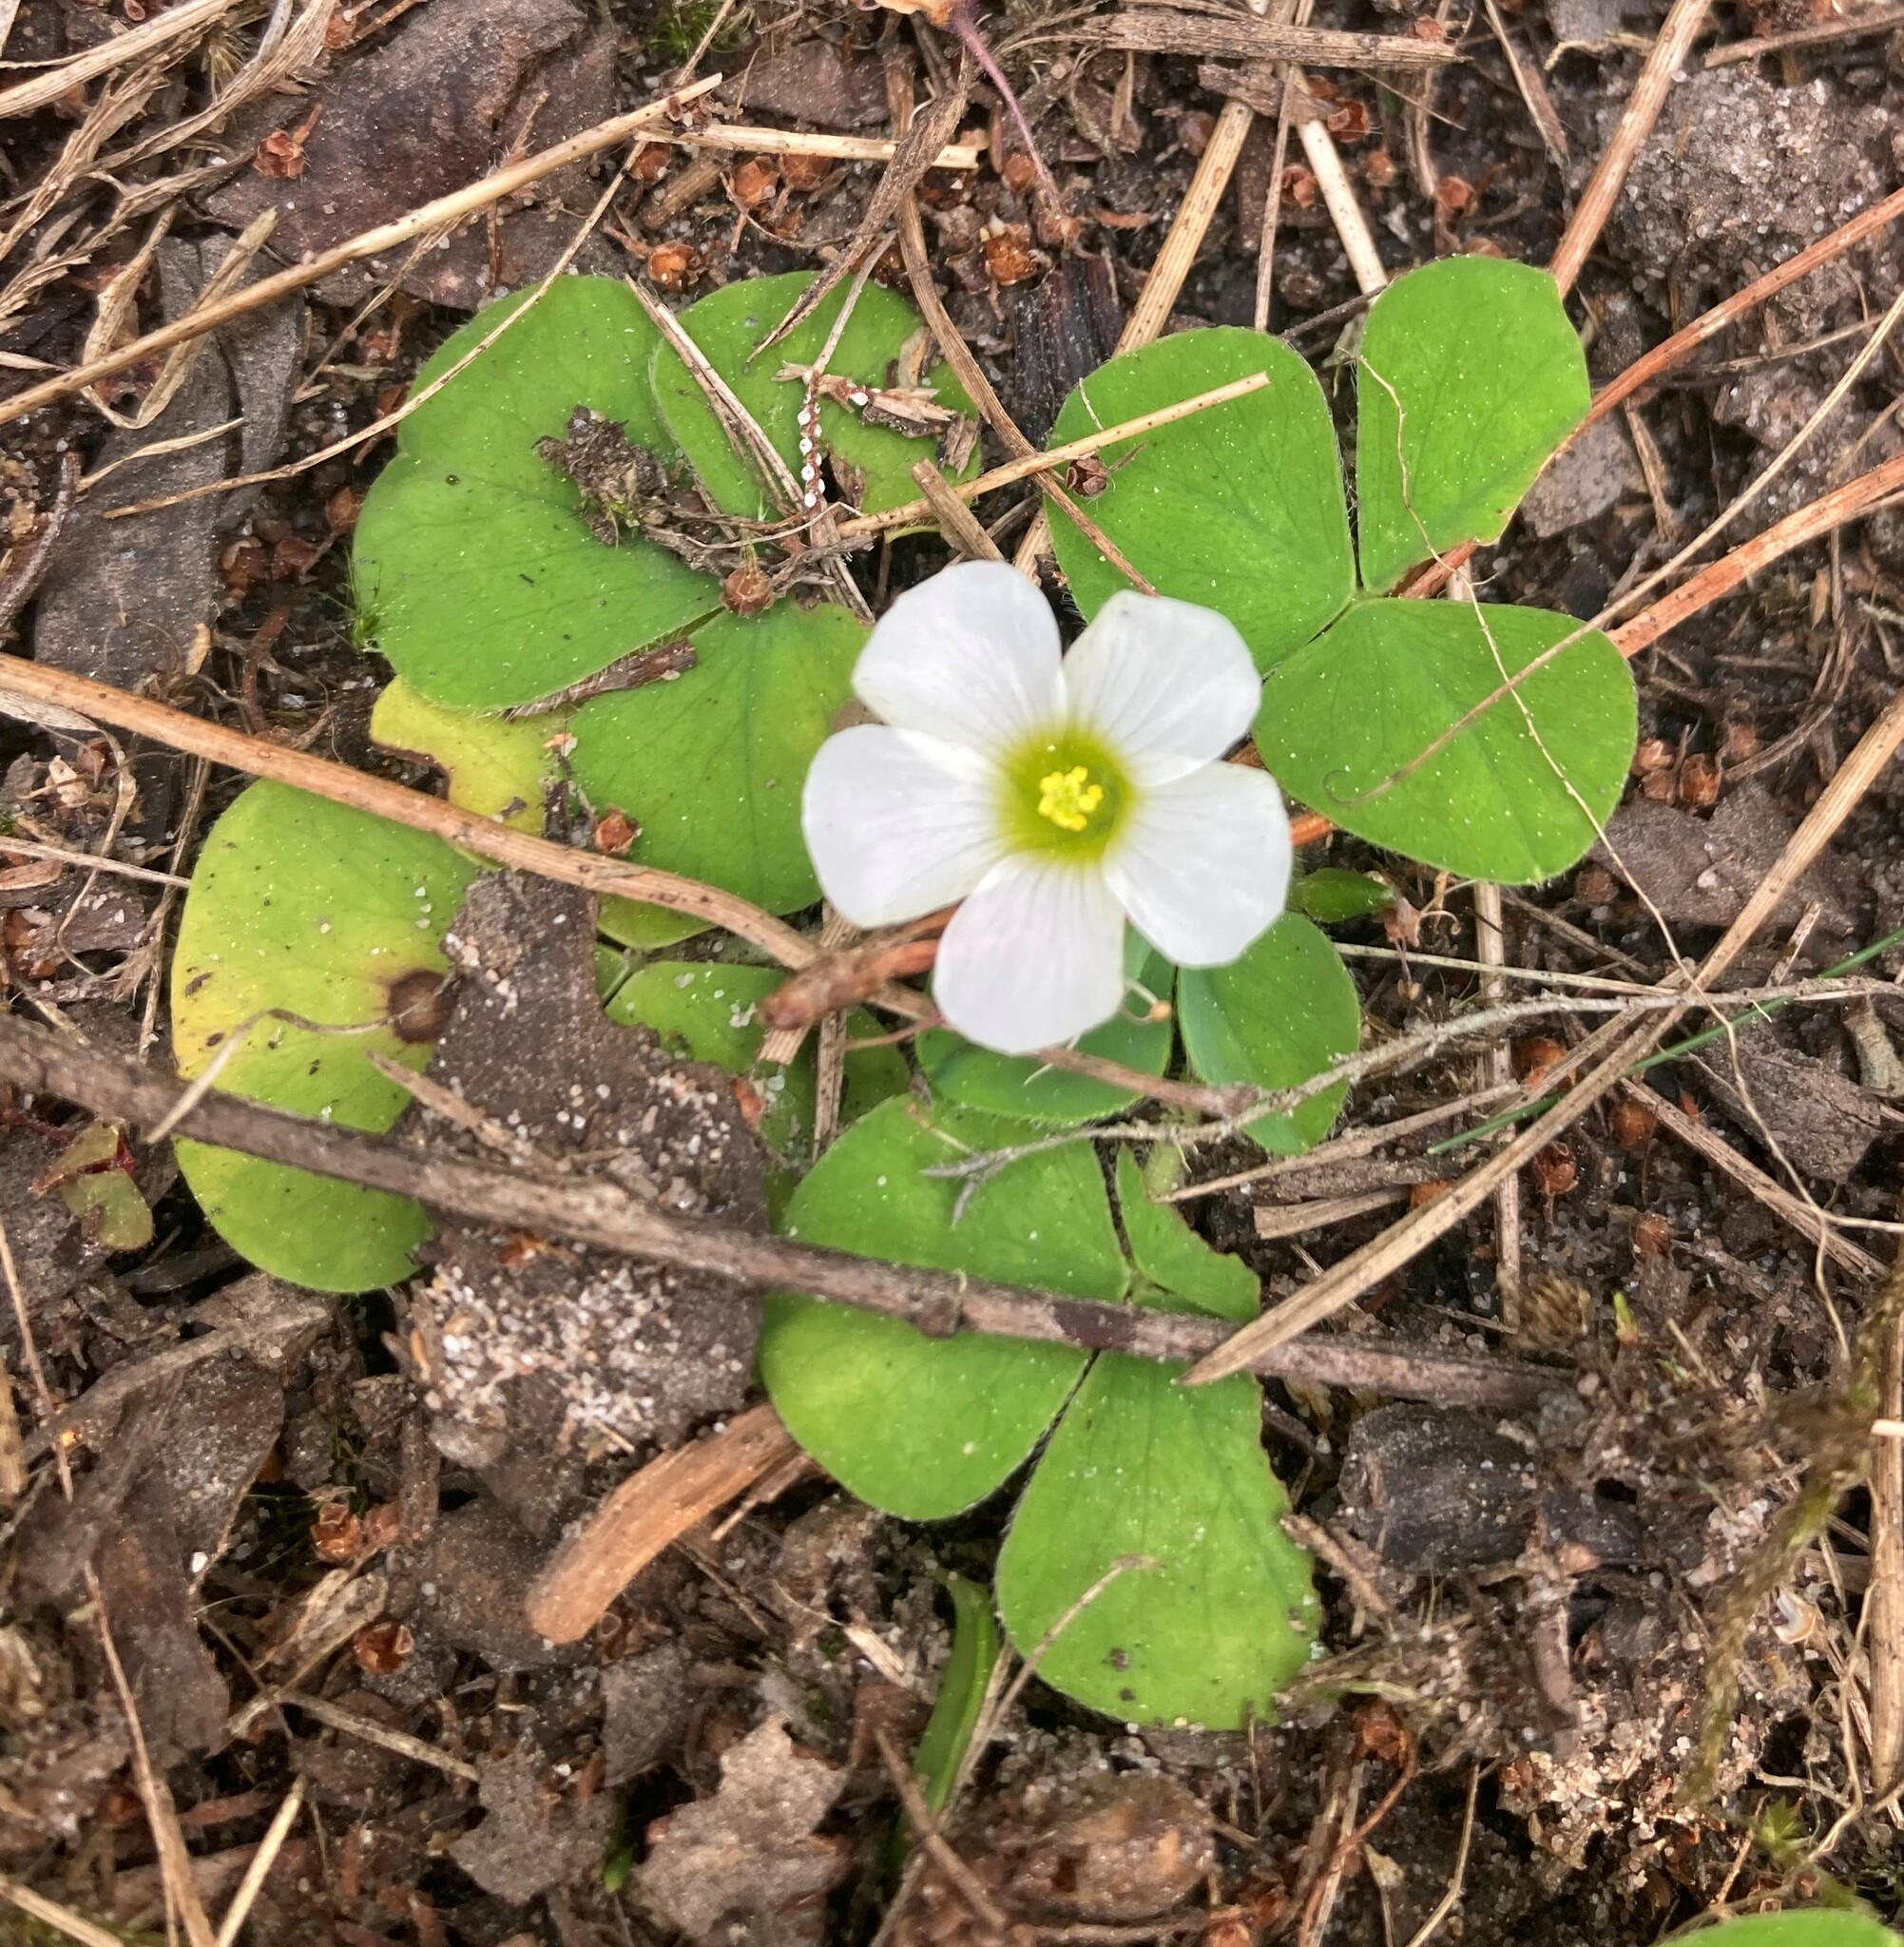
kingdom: Plantae
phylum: Tracheophyta
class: Magnoliopsida
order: Oxalidales
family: Oxalidaceae
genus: Oxalis
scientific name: Oxalis purpurea
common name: Purple woodsorrel
